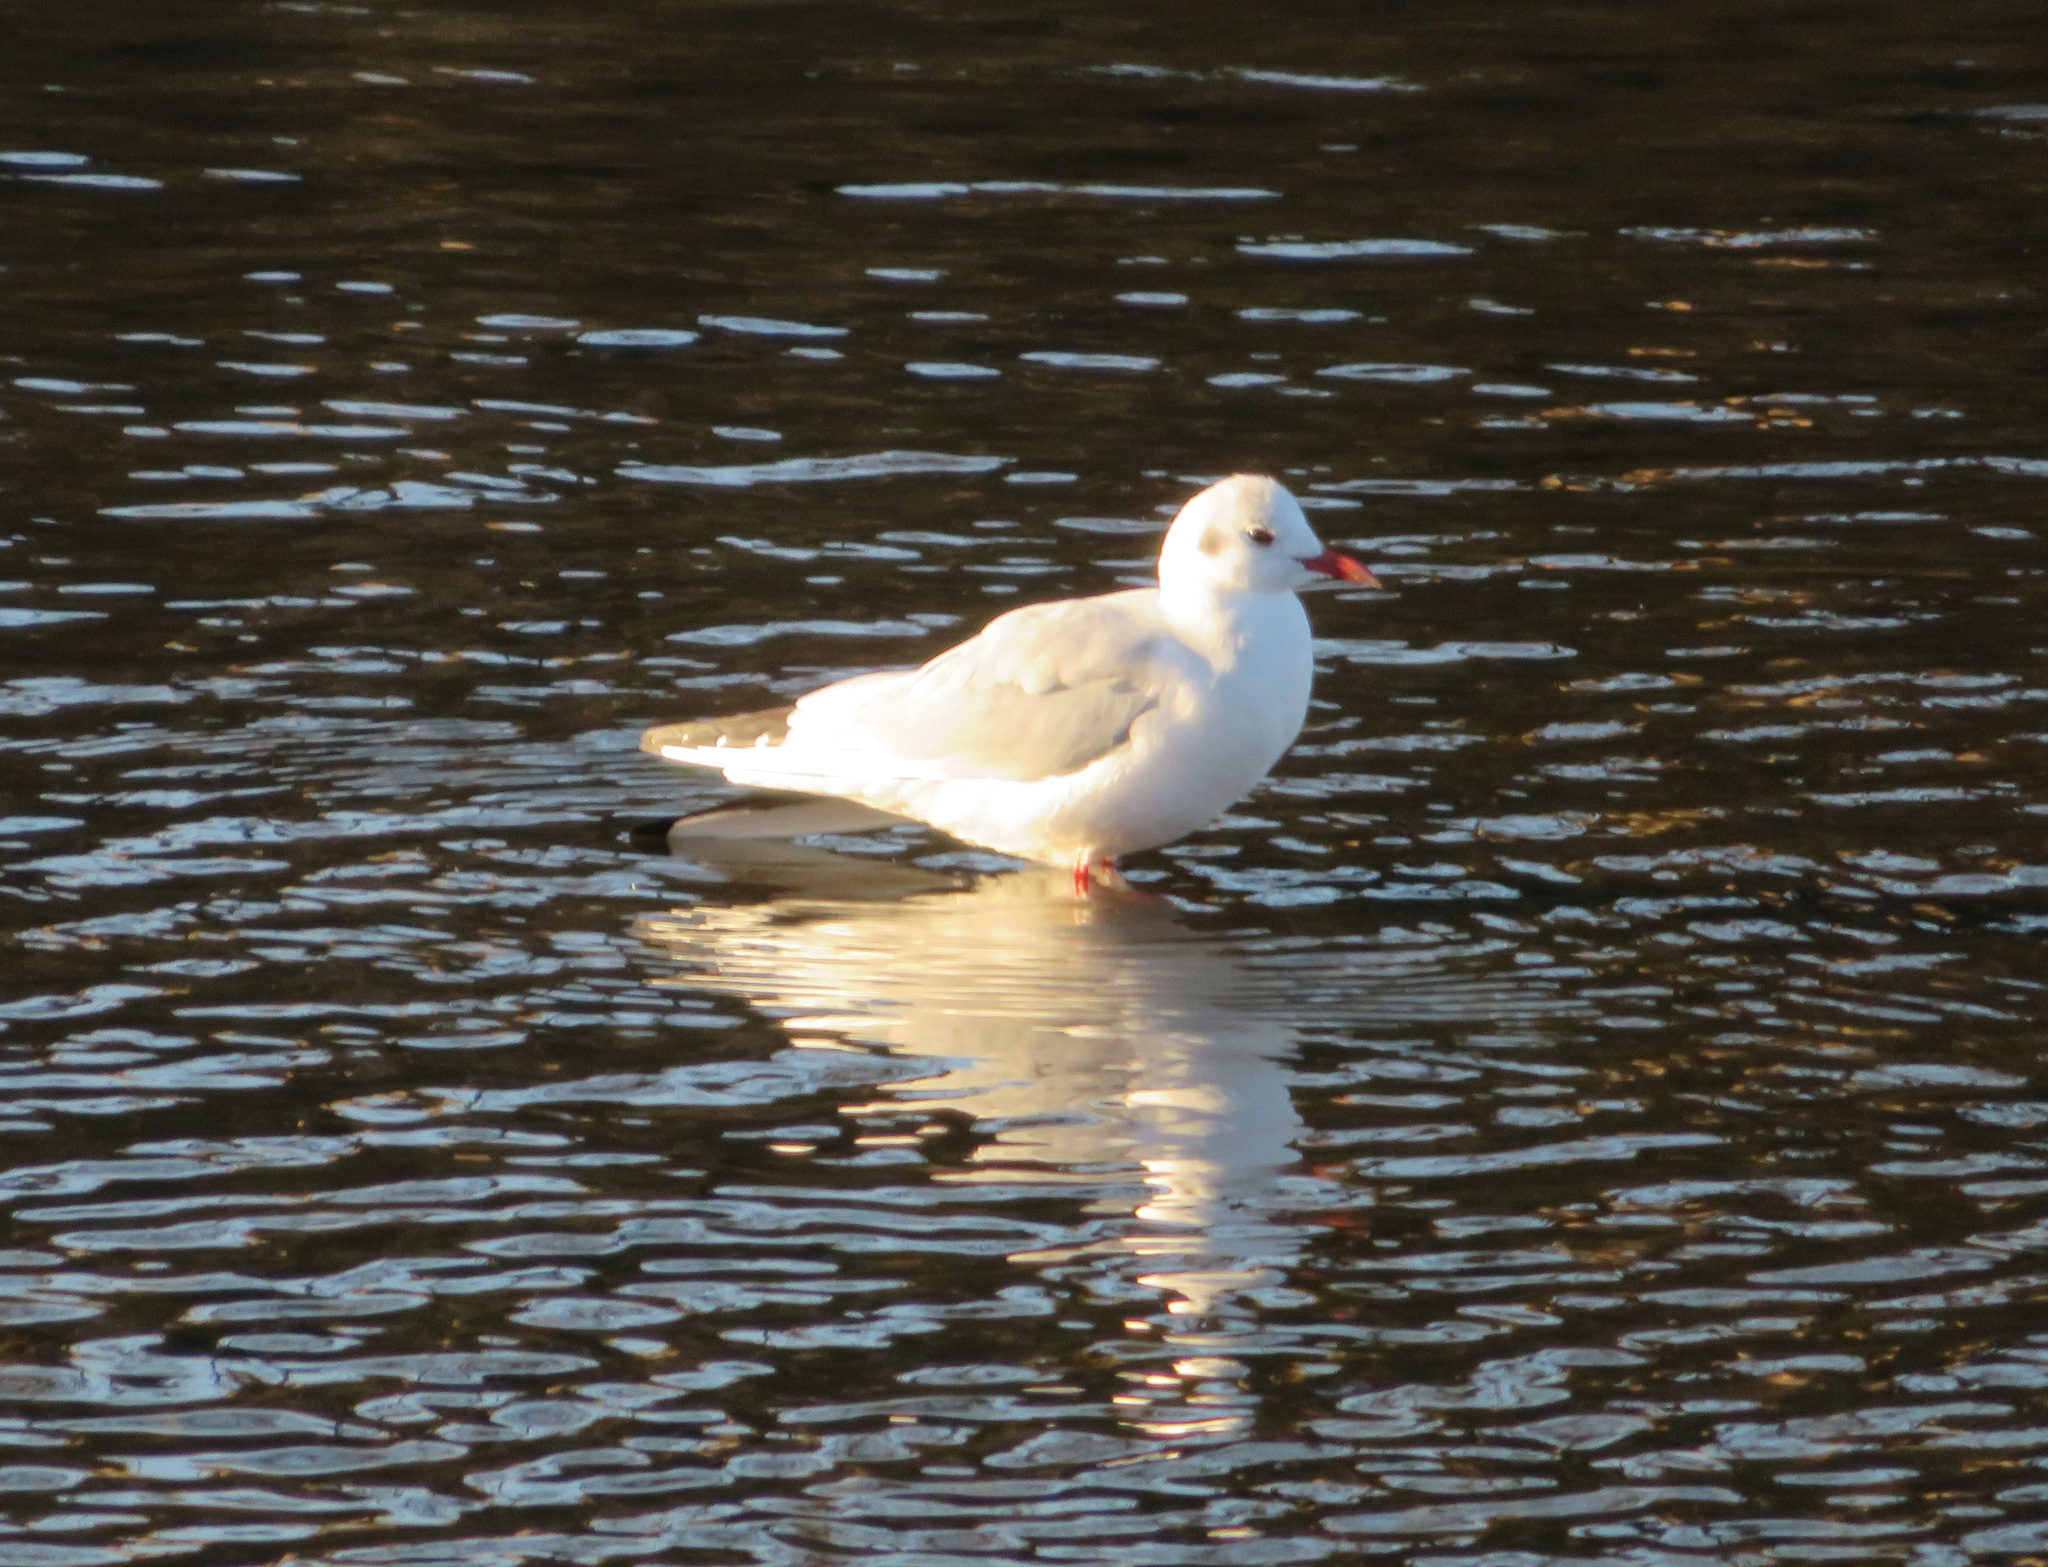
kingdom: Animalia
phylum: Chordata
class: Aves
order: Charadriiformes
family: Laridae
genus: Chroicocephalus
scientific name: Chroicocephalus ridibundus
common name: Black-headed gull
